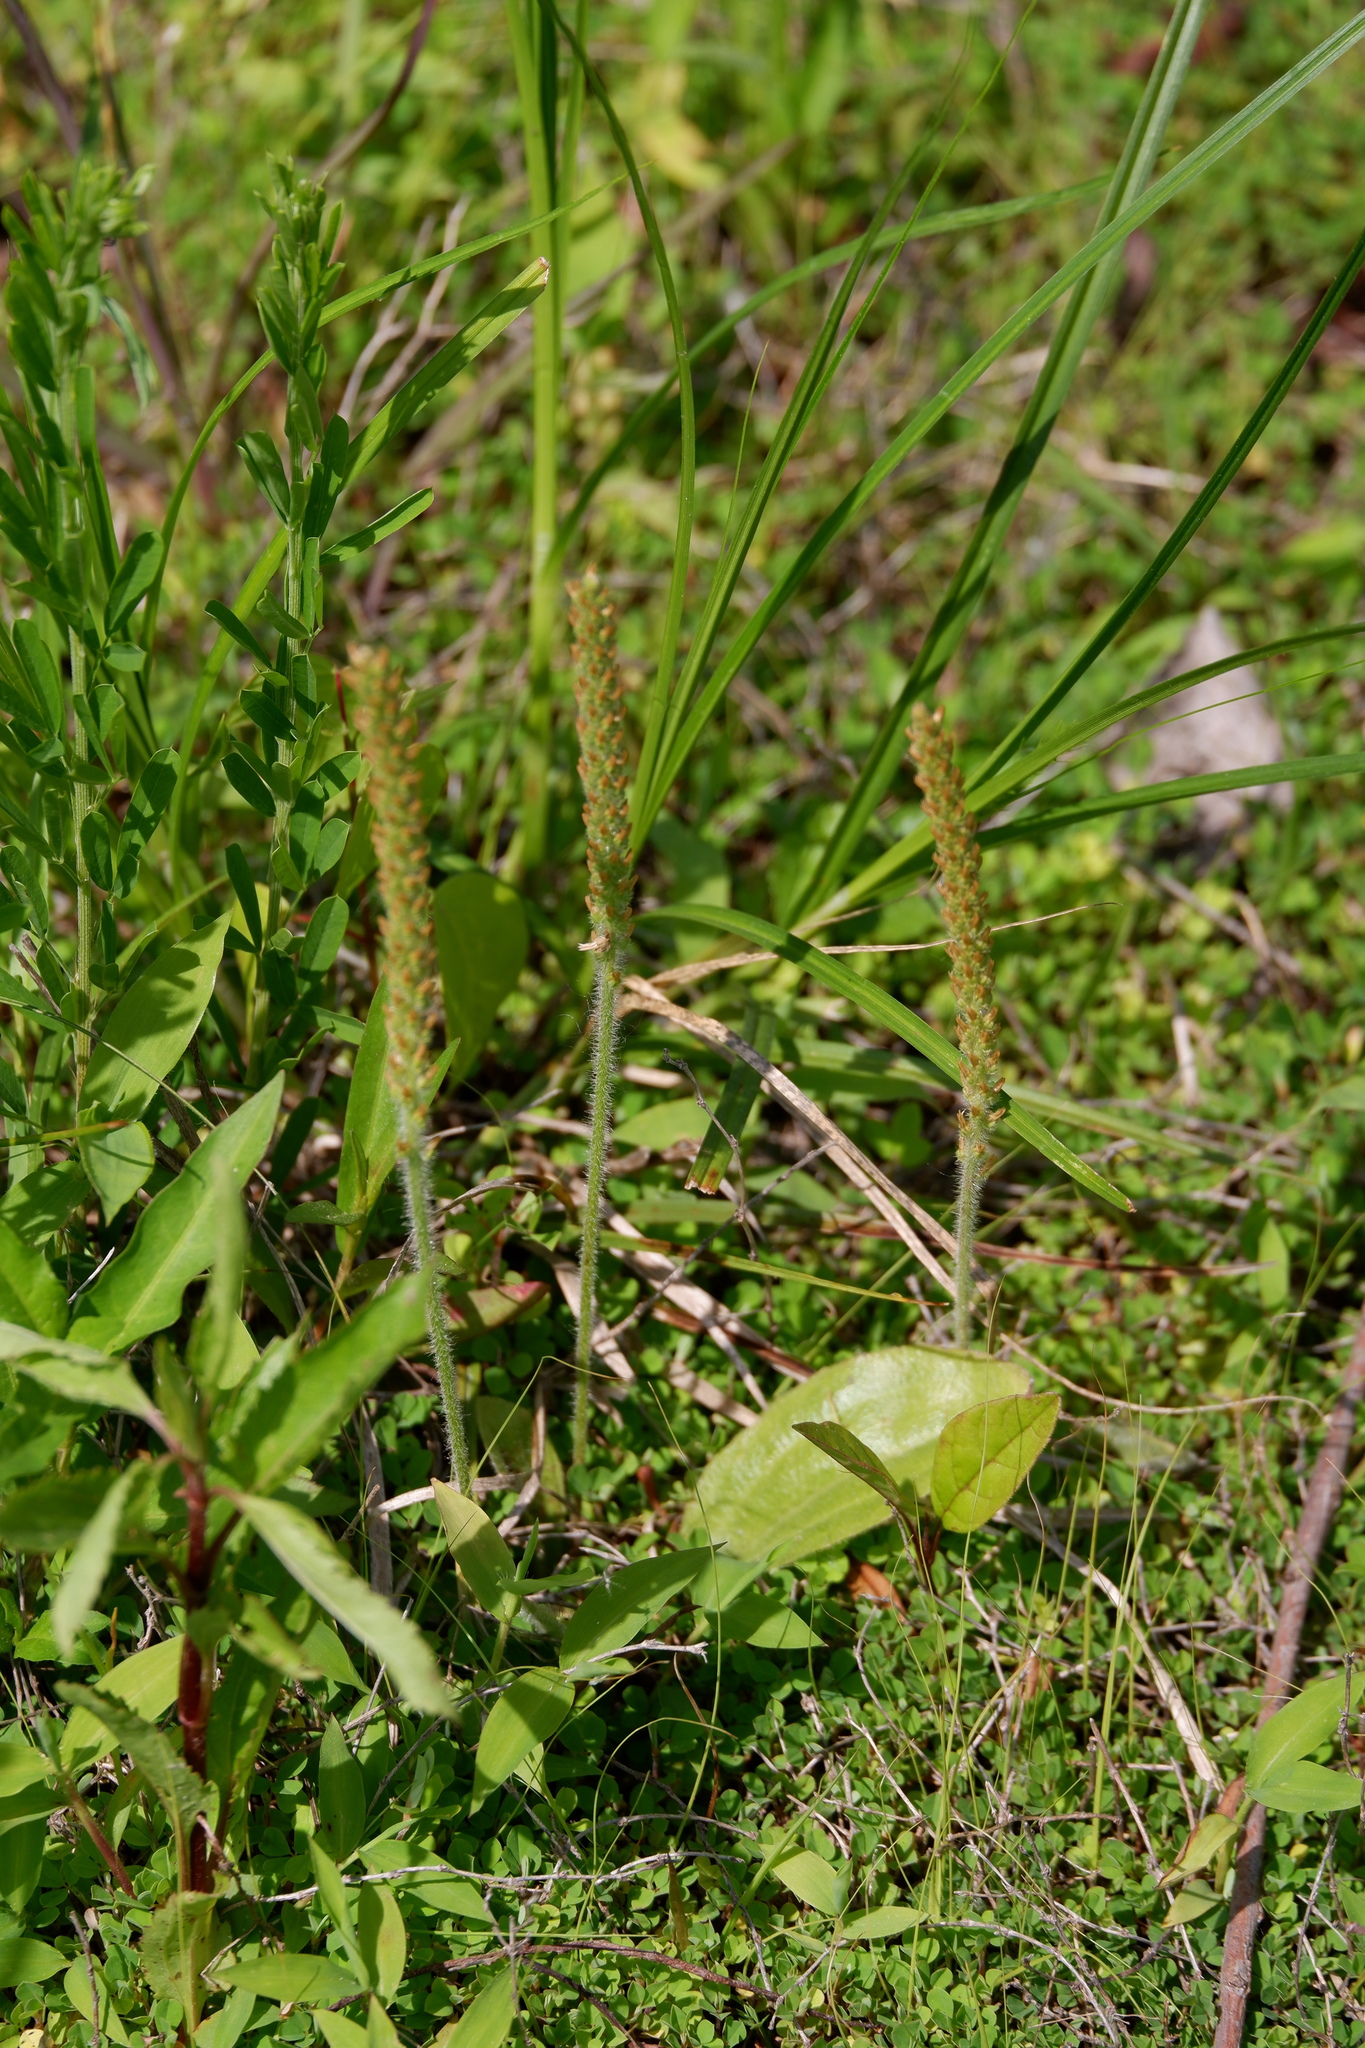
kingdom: Plantae
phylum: Tracheophyta
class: Magnoliopsida
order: Lamiales
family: Plantaginaceae
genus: Plantago
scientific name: Plantago virginica
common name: Hoary plantain
